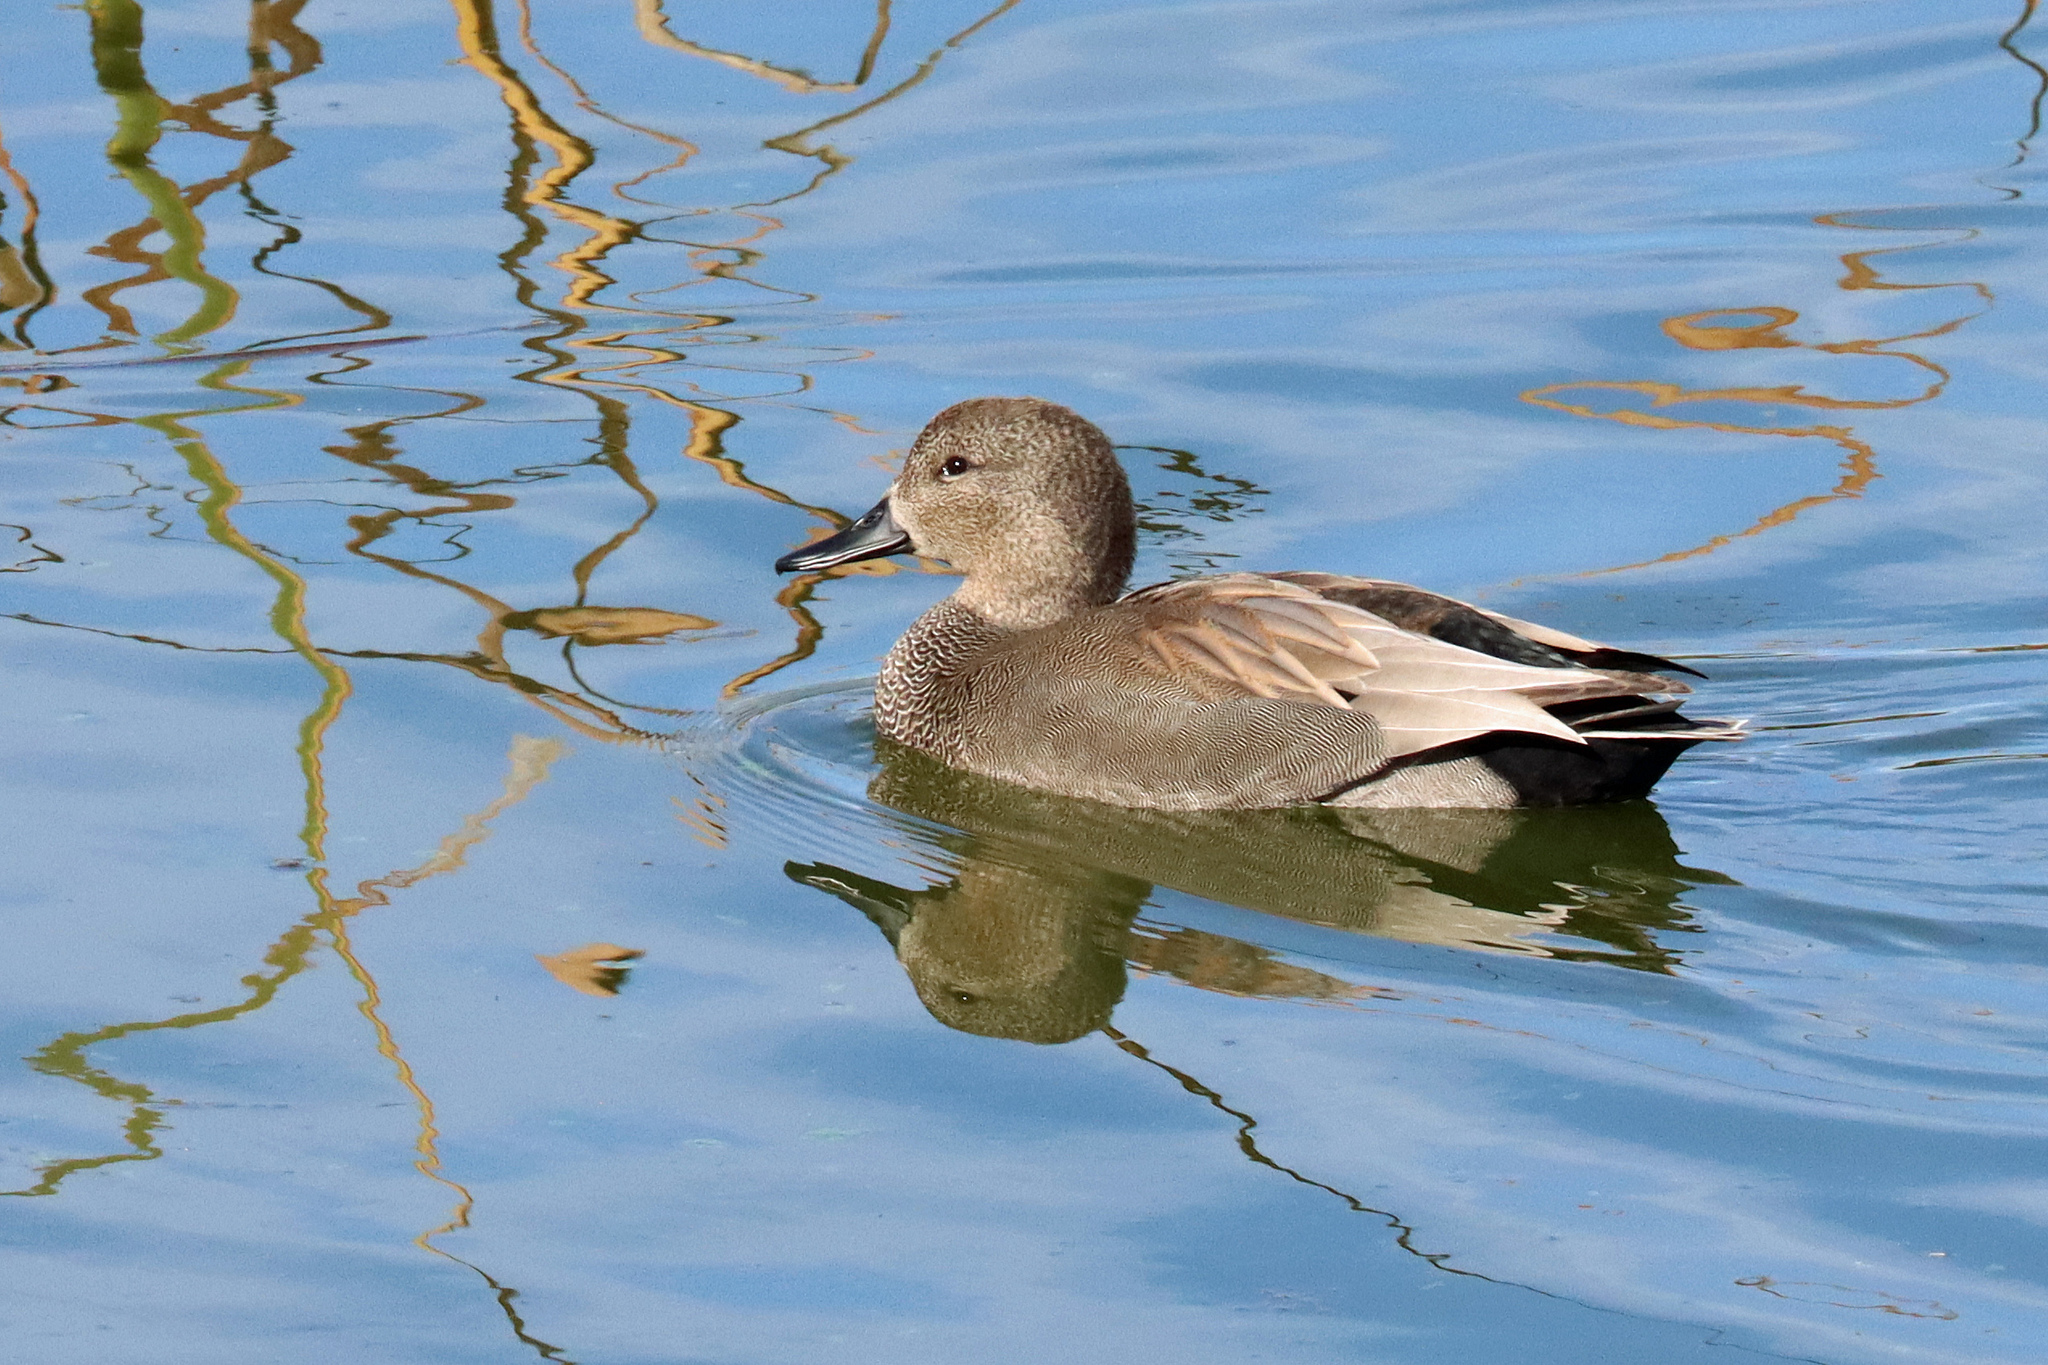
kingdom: Animalia
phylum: Chordata
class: Aves
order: Anseriformes
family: Anatidae
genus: Mareca
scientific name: Mareca strepera
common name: Gadwall
